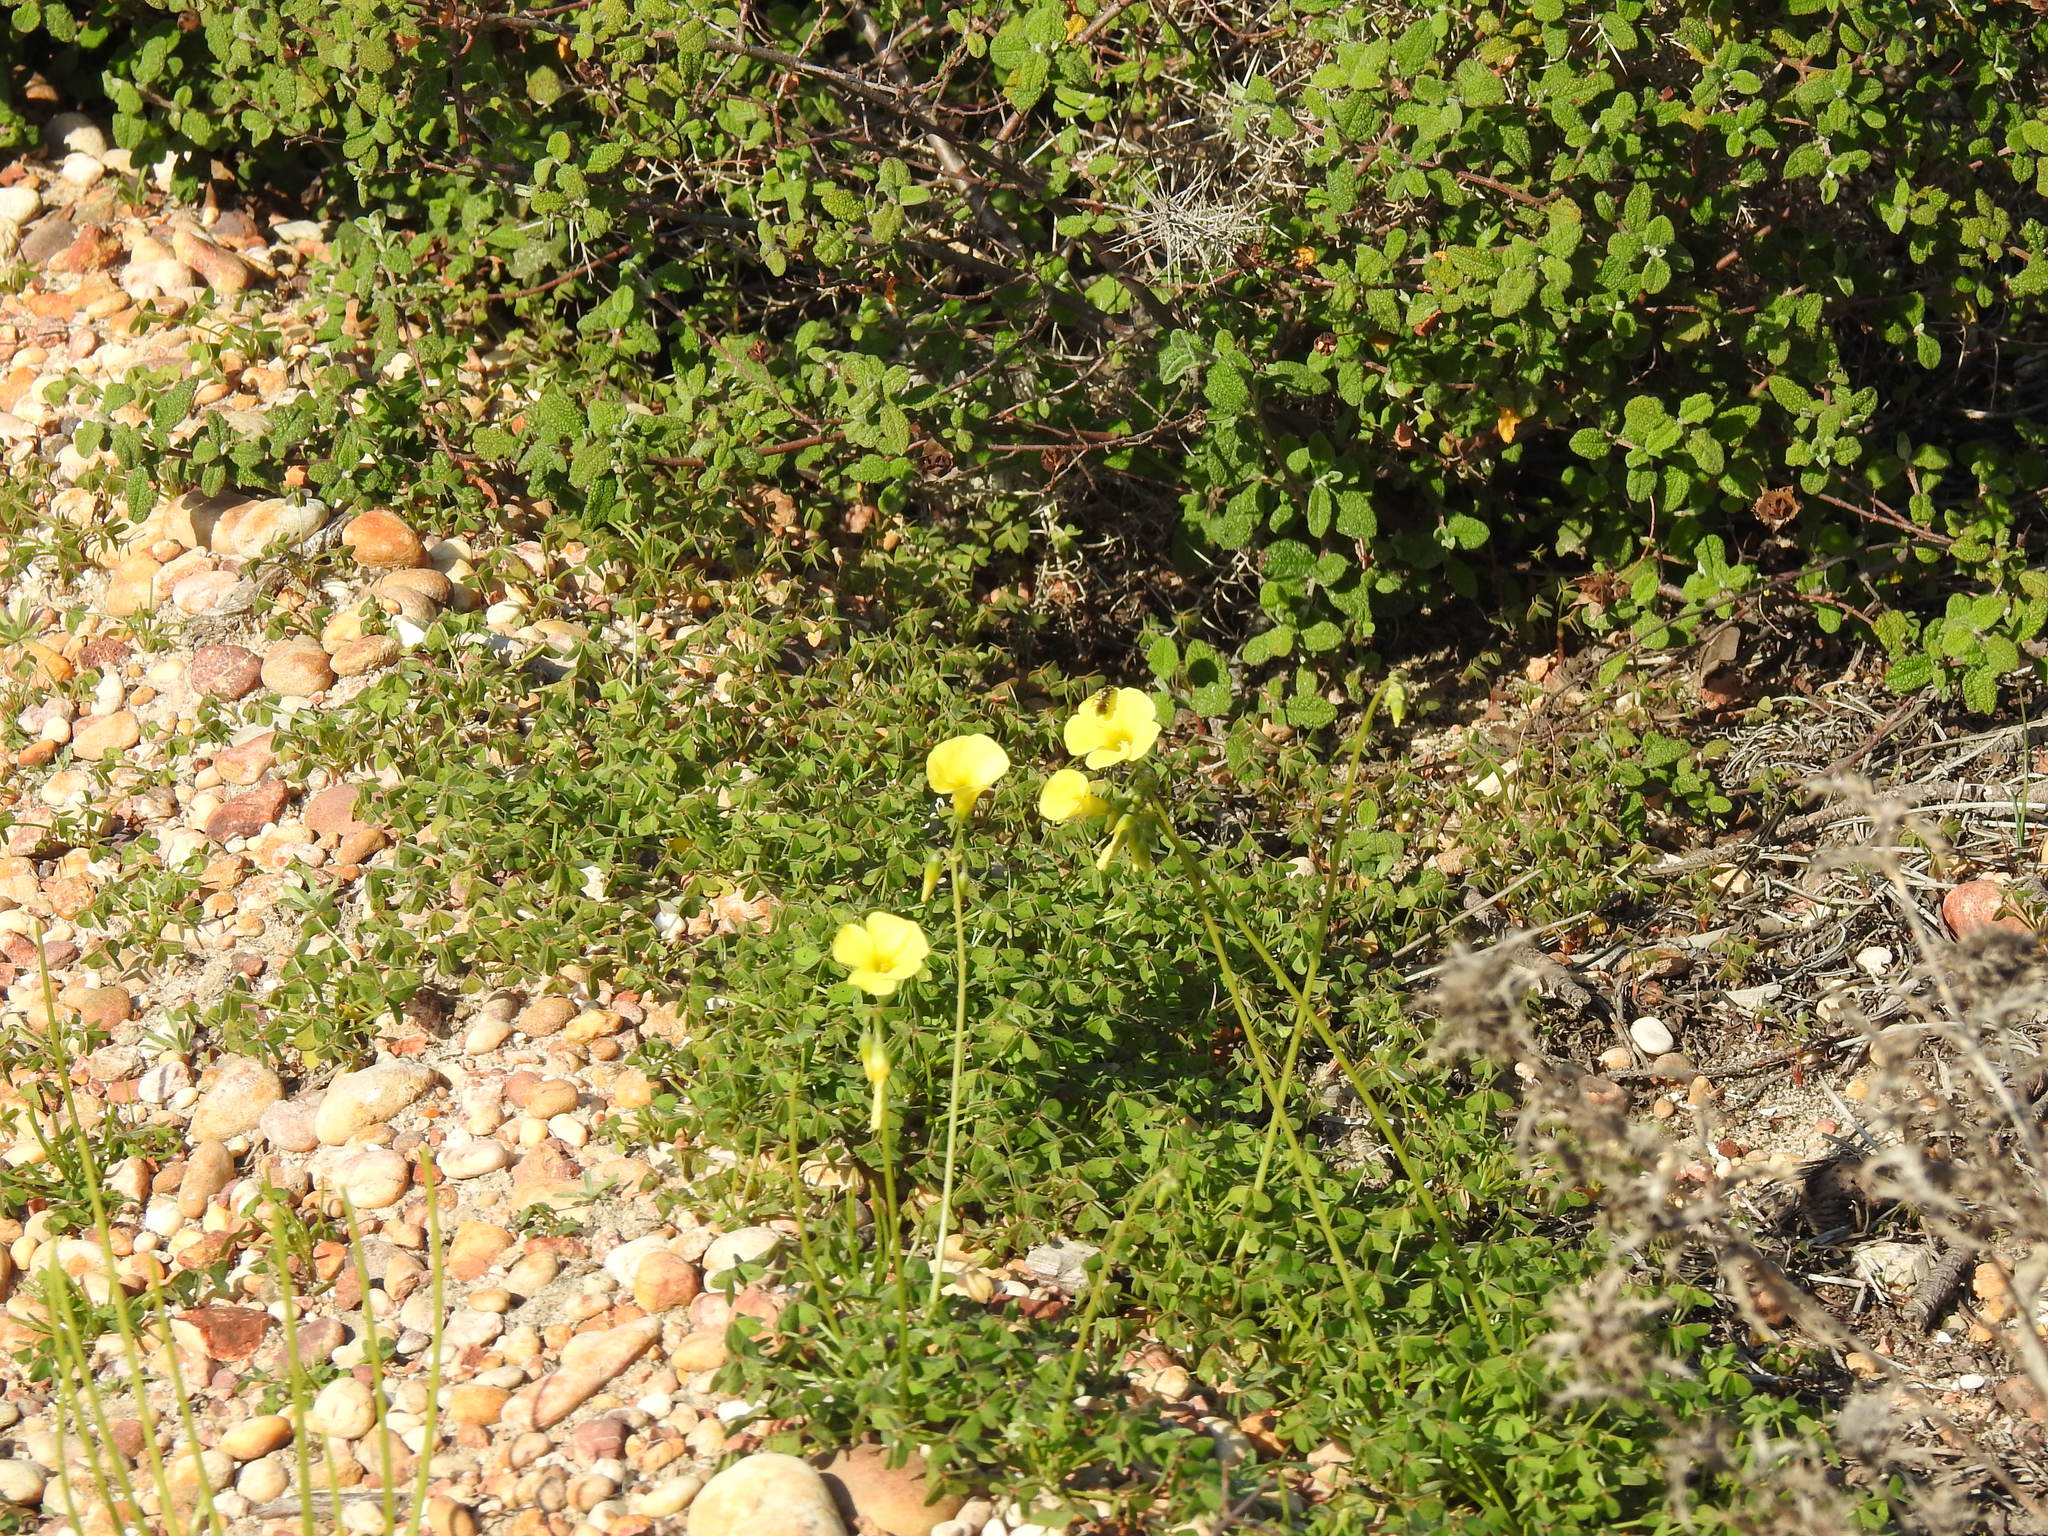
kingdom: Plantae
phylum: Tracheophyta
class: Magnoliopsida
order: Oxalidales
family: Oxalidaceae
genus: Oxalis
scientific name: Oxalis pes-caprae
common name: Bermuda-buttercup
